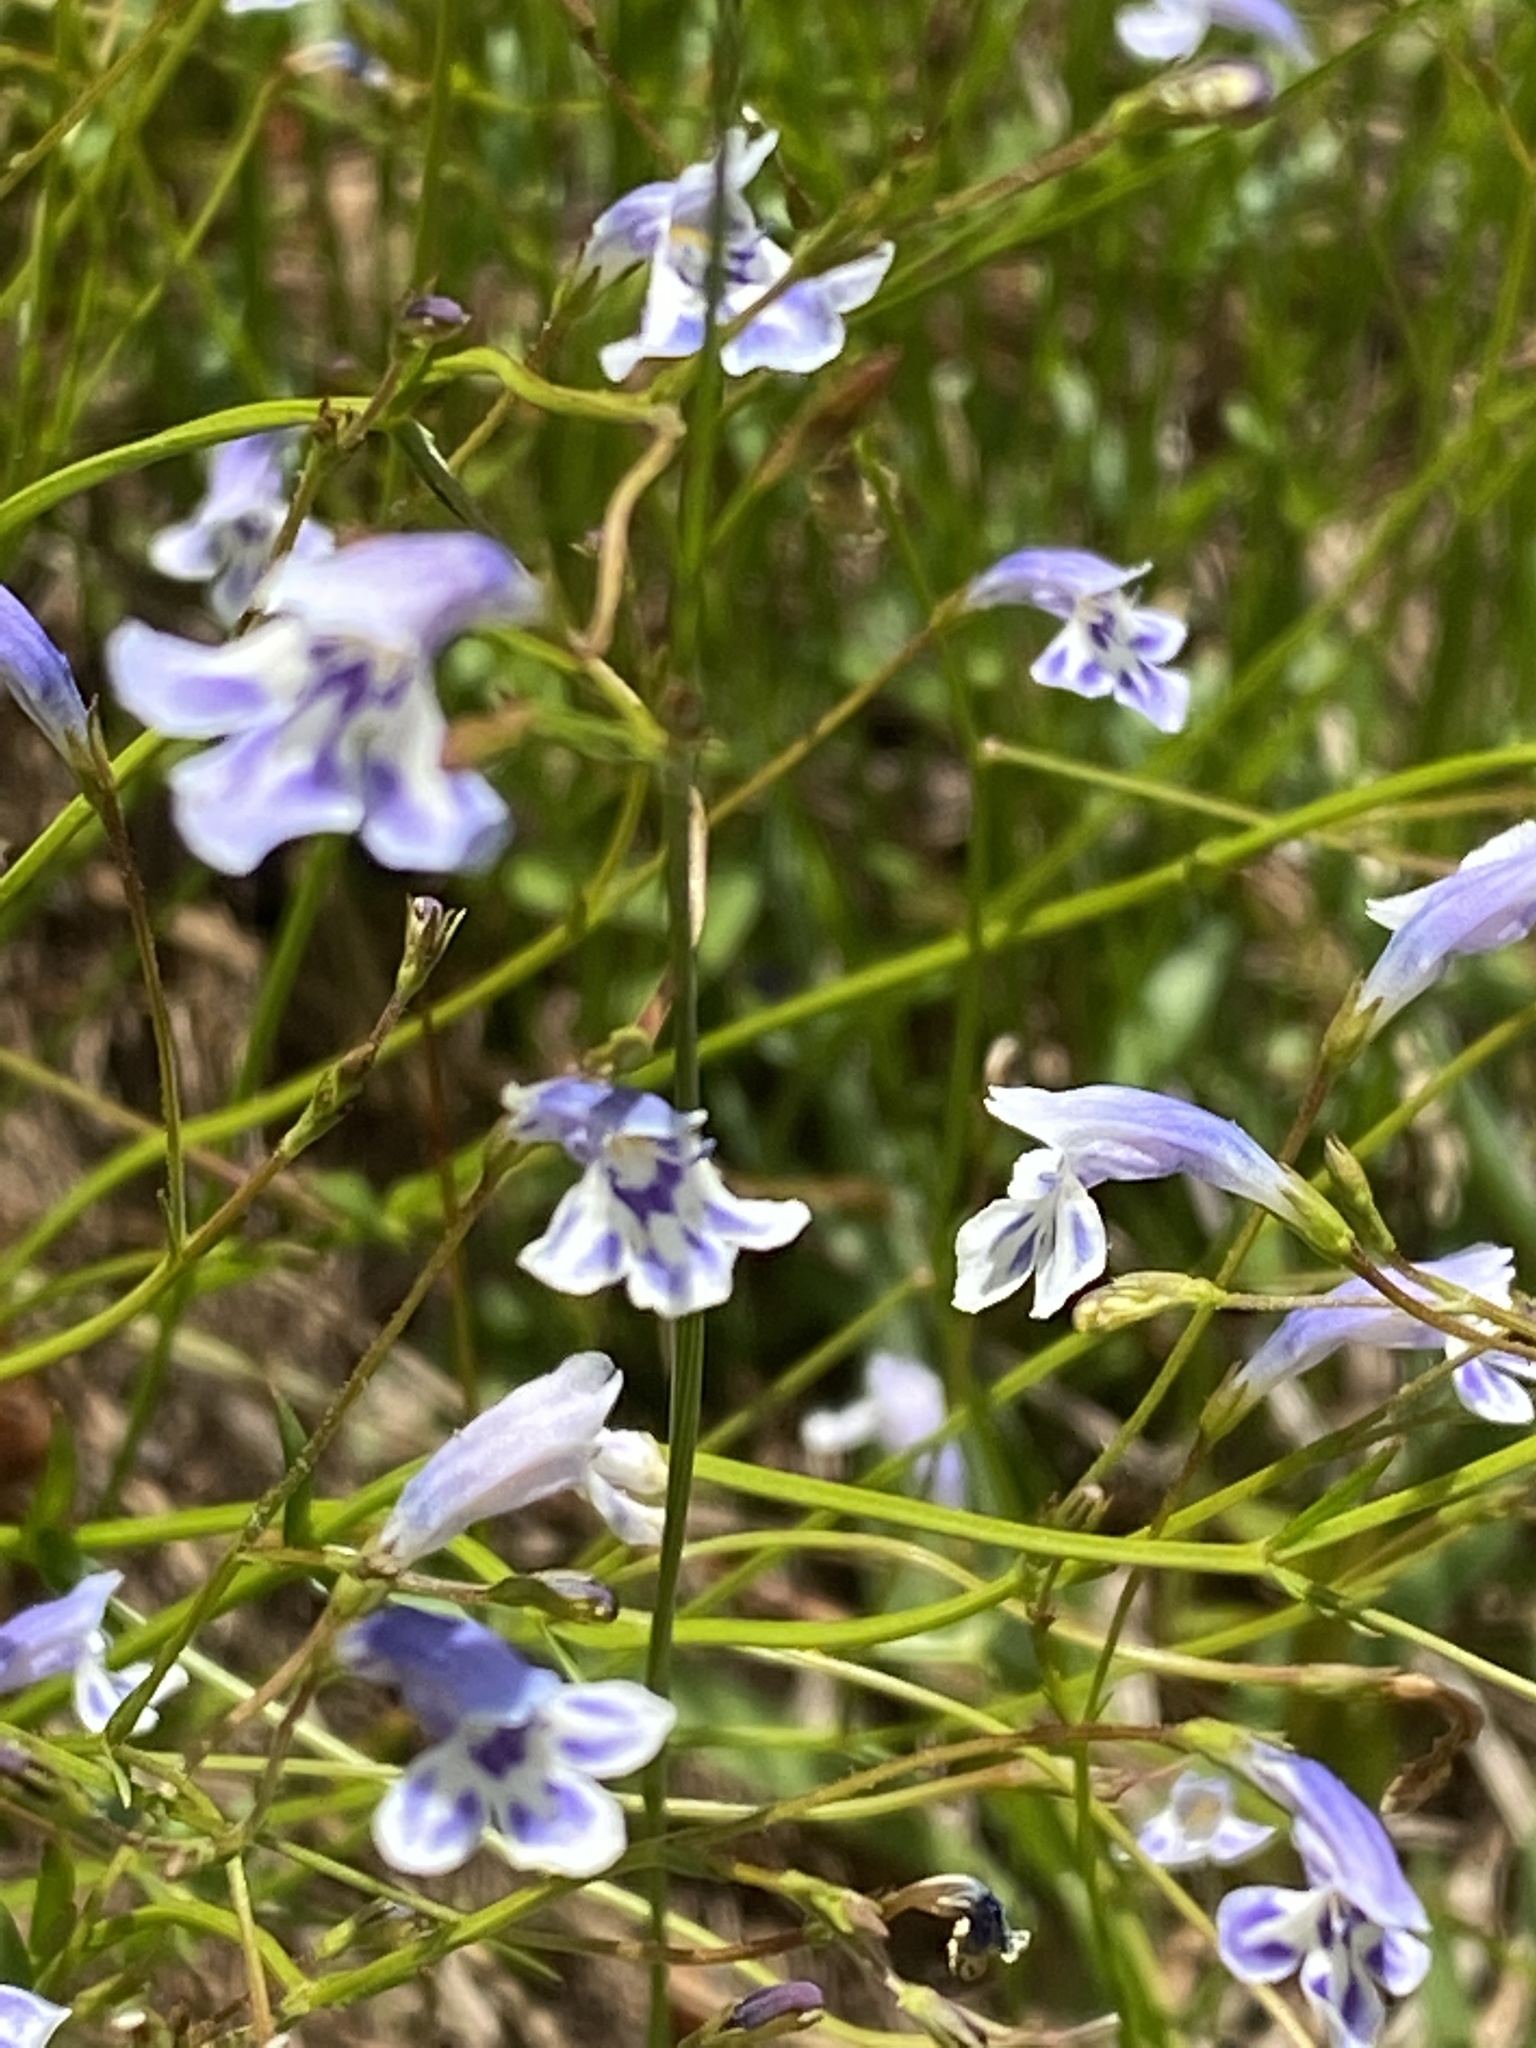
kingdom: Plantae
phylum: Tracheophyta
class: Magnoliopsida
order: Lamiales
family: Linderniaceae
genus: Lindernia
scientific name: Lindernia monticola
